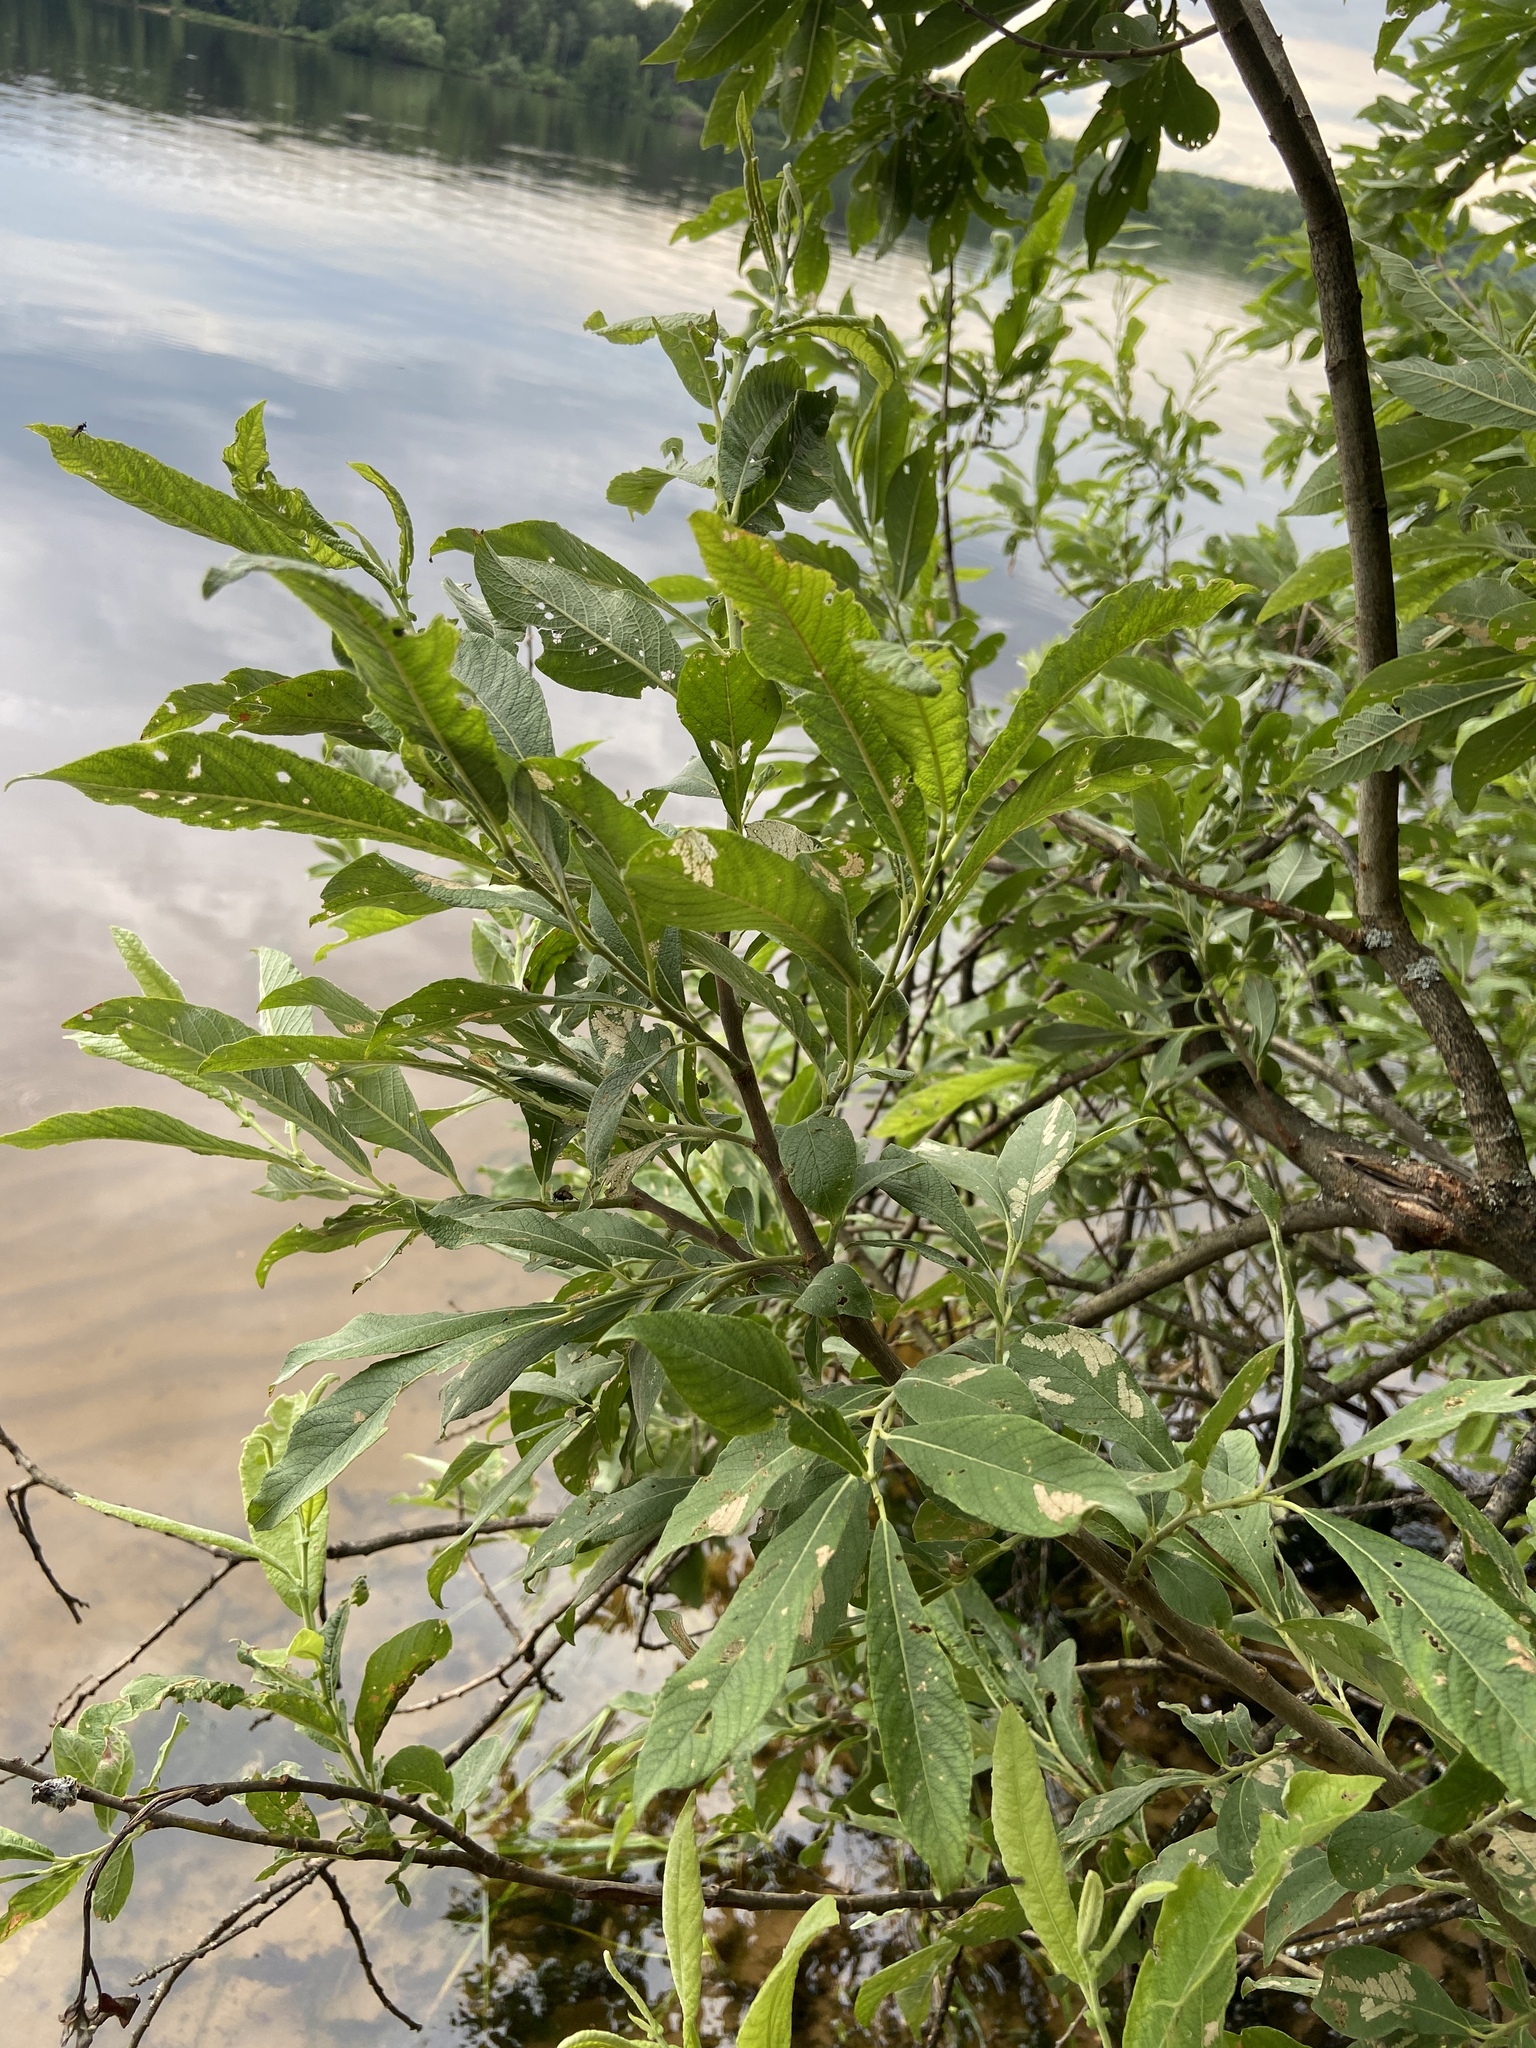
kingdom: Plantae
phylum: Tracheophyta
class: Magnoliopsida
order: Malpighiales
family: Salicaceae
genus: Salix
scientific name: Salix cinerea
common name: Common sallow
